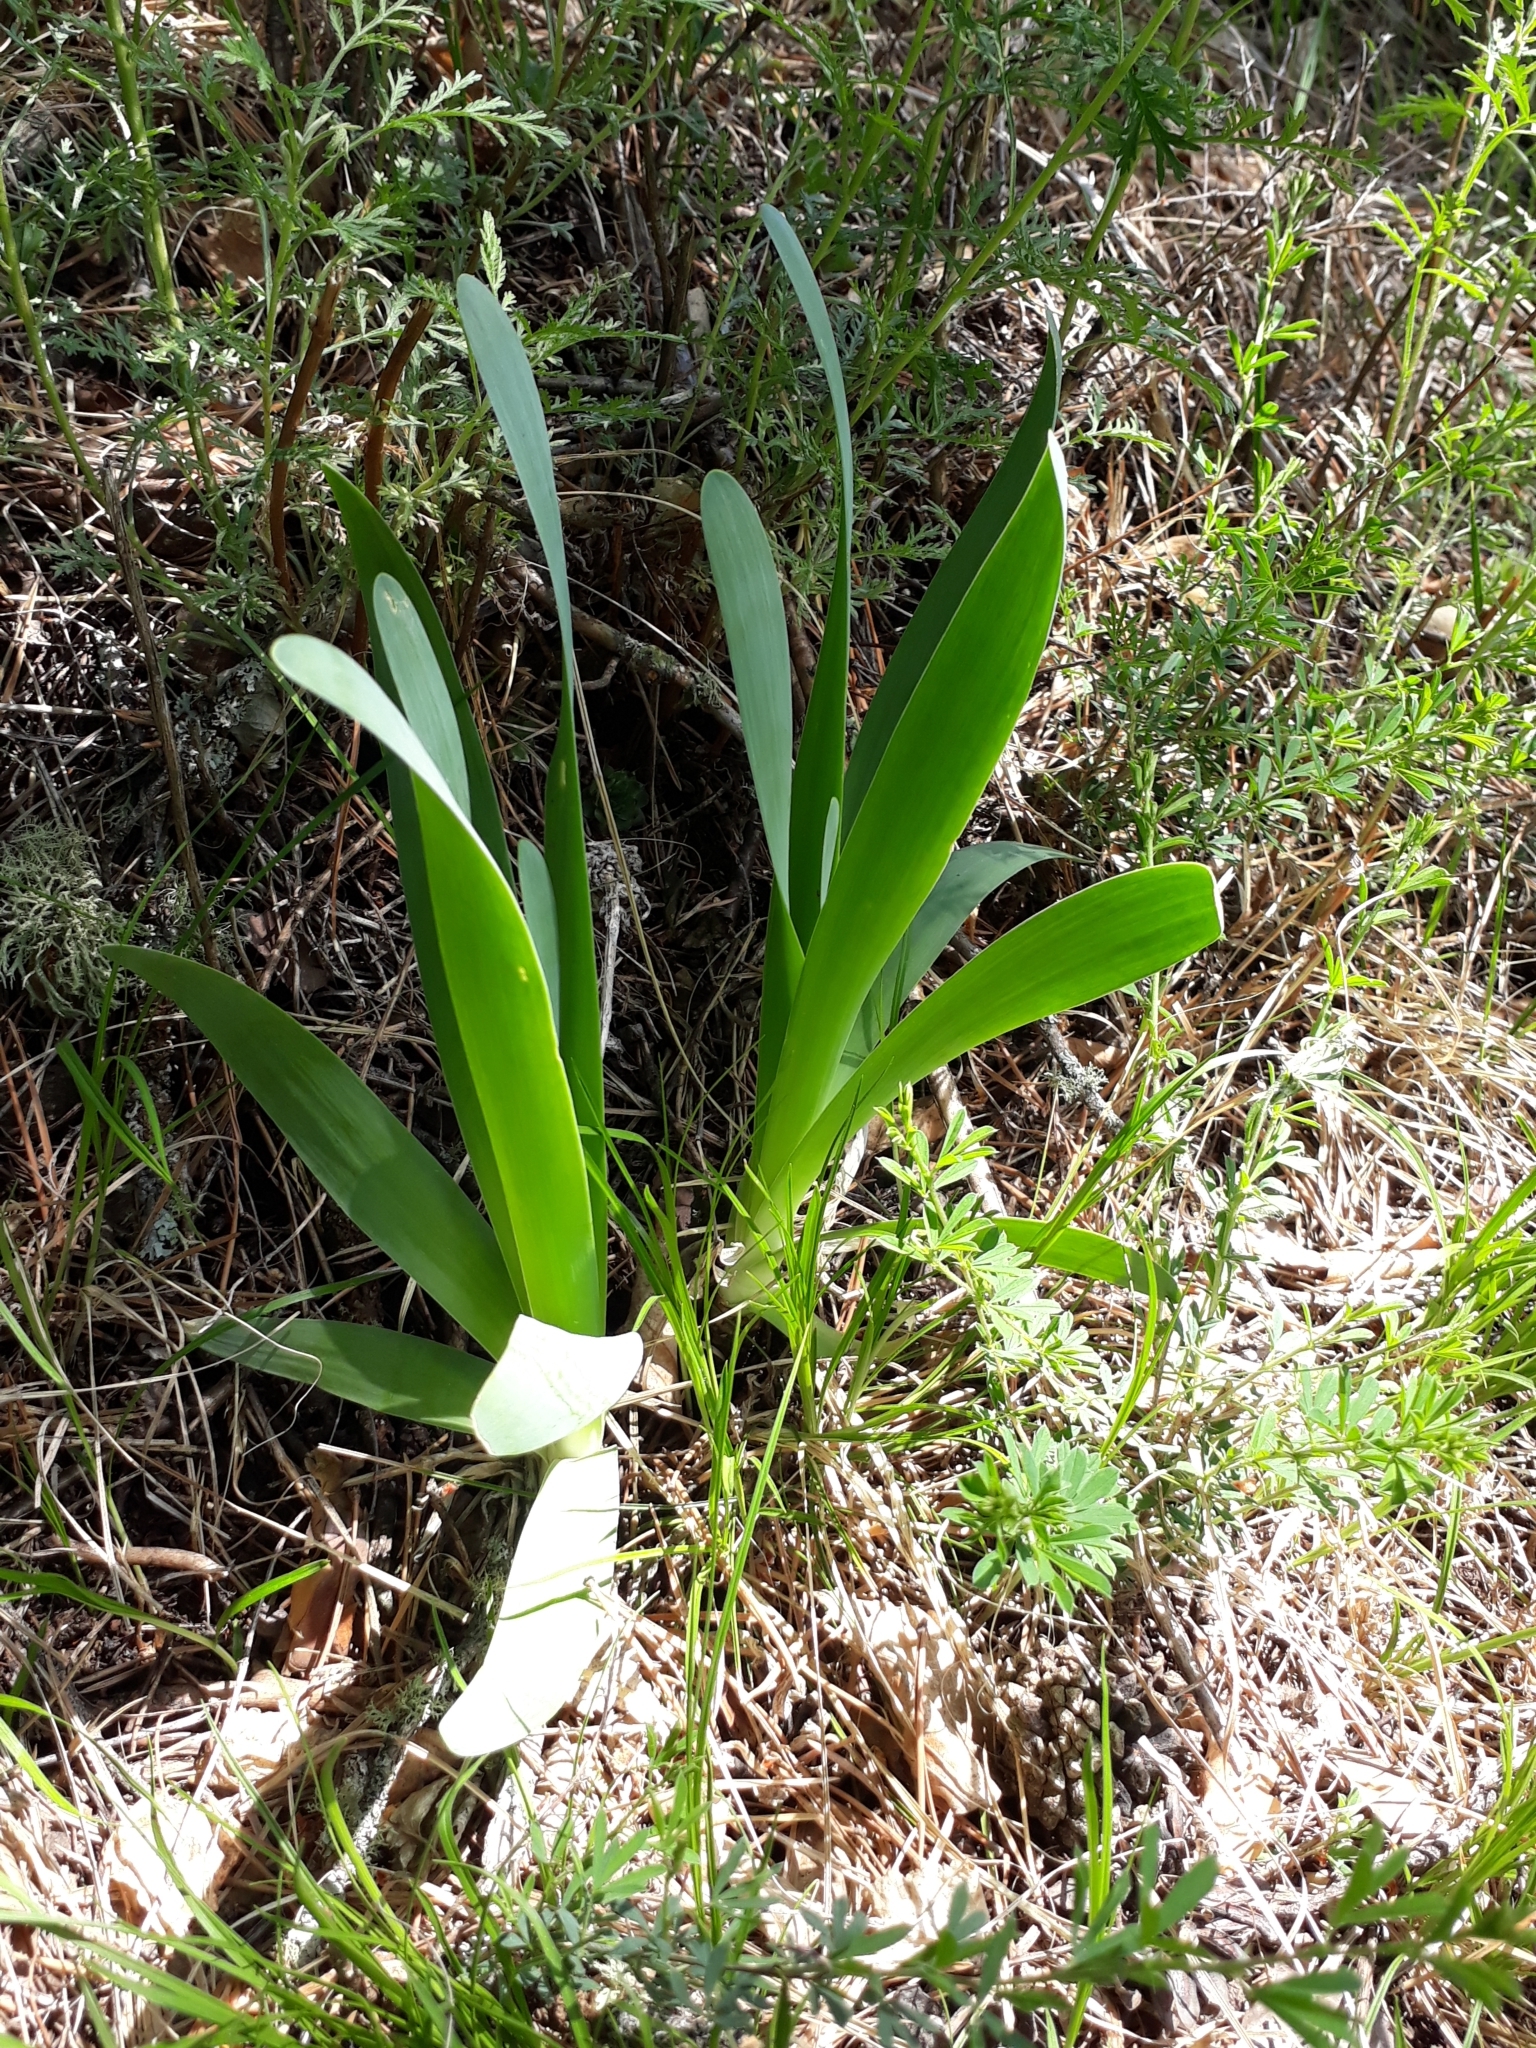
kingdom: Plantae
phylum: Tracheophyta
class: Liliopsida
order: Asparagales
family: Amaryllidaceae
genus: Allium
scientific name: Allium nutans
